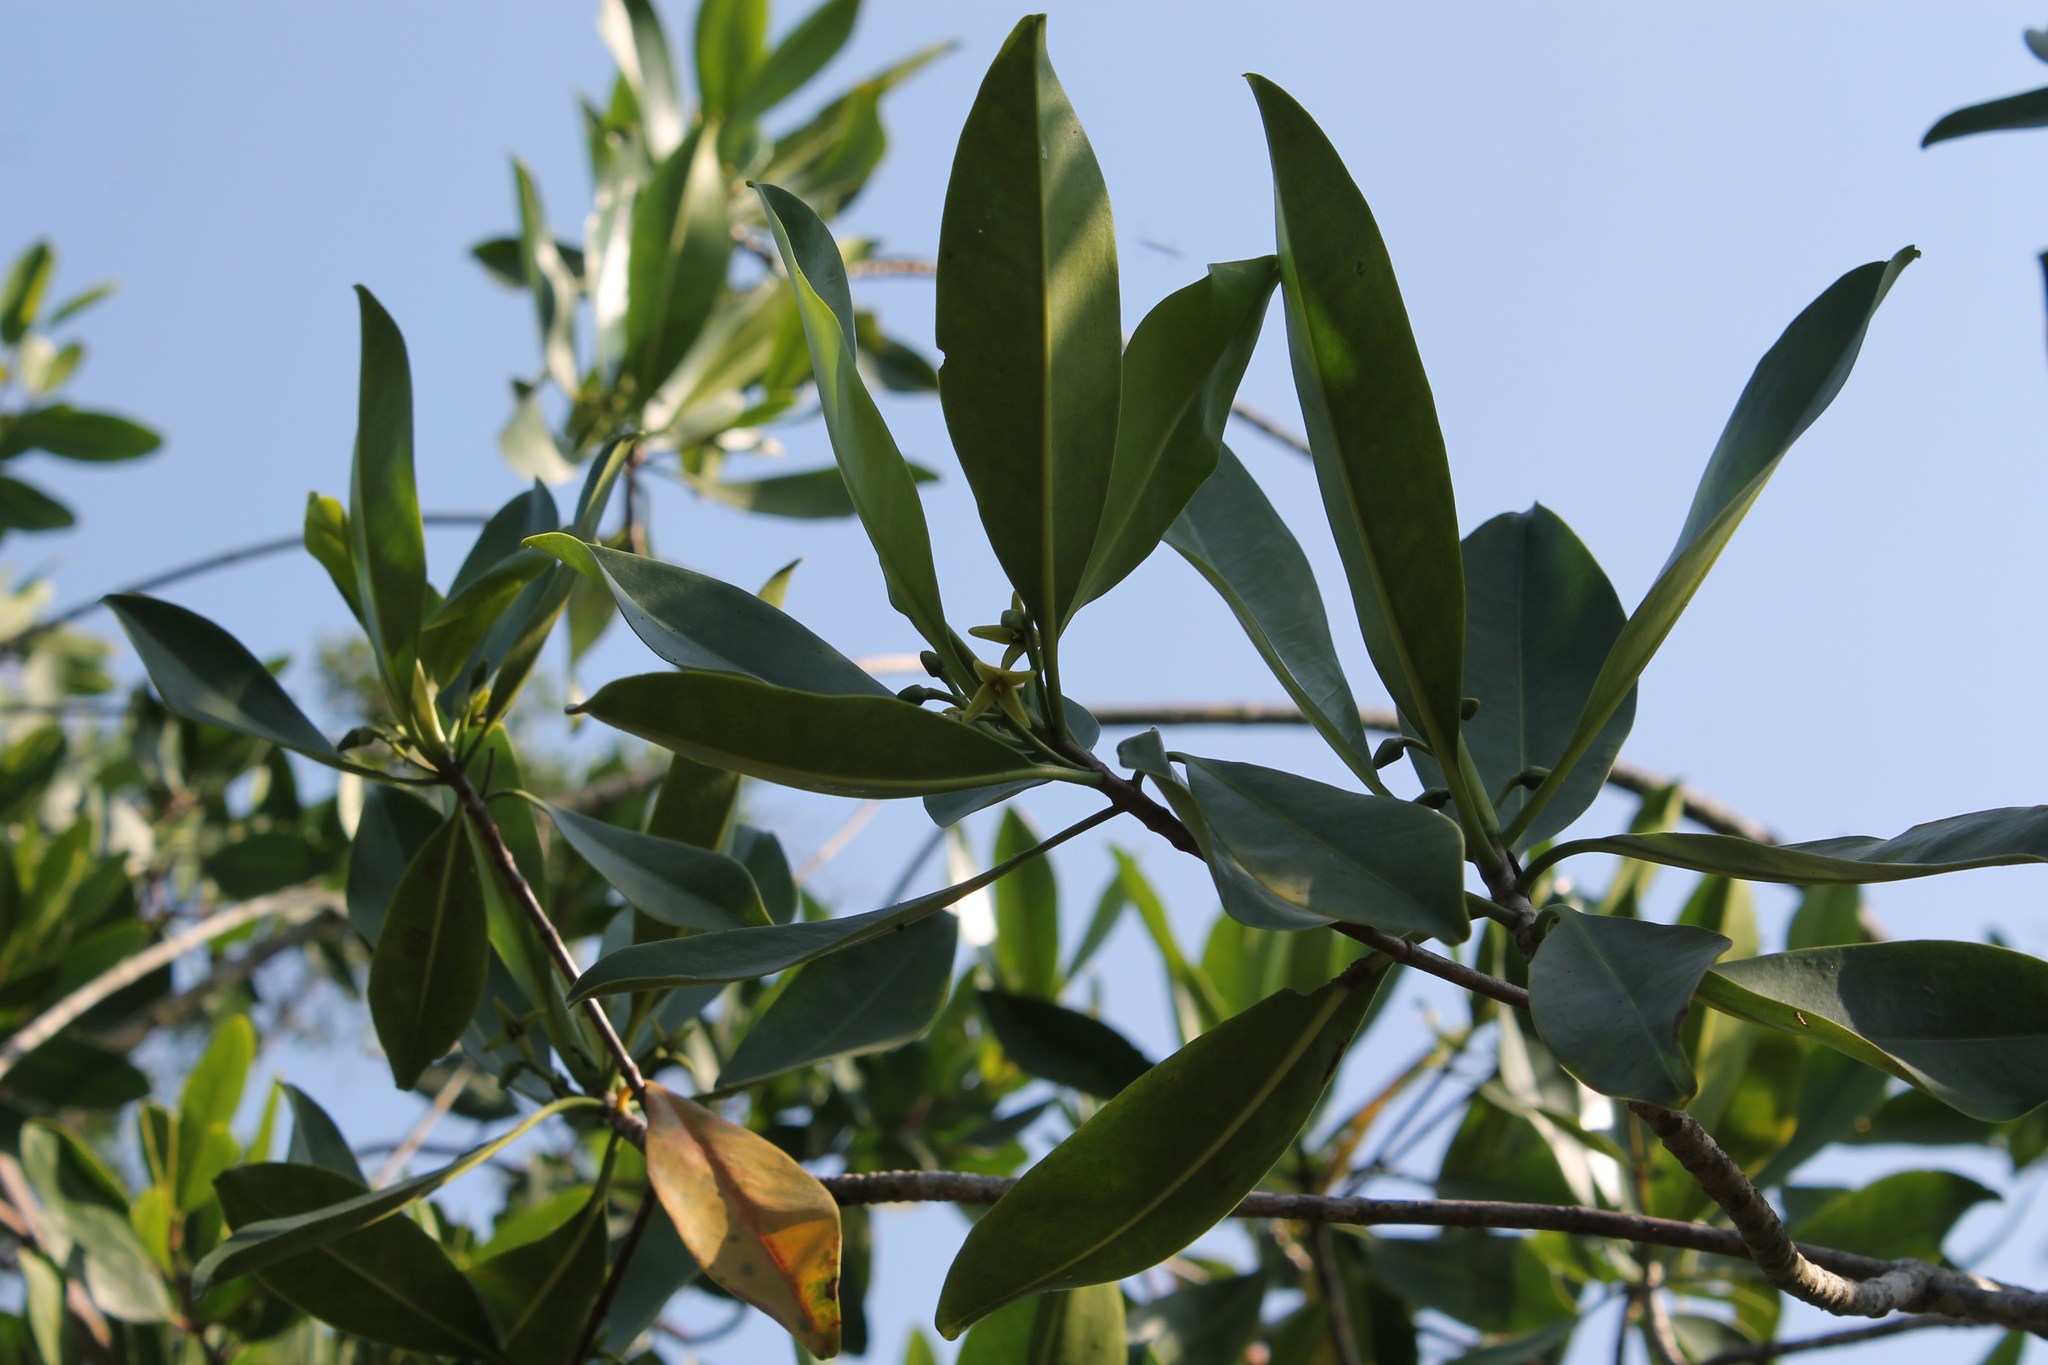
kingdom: Plantae
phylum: Tracheophyta
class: Magnoliopsida
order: Malpighiales
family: Rhizophoraceae
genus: Rhizophora
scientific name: Rhizophora mangle
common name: Red mangrove
